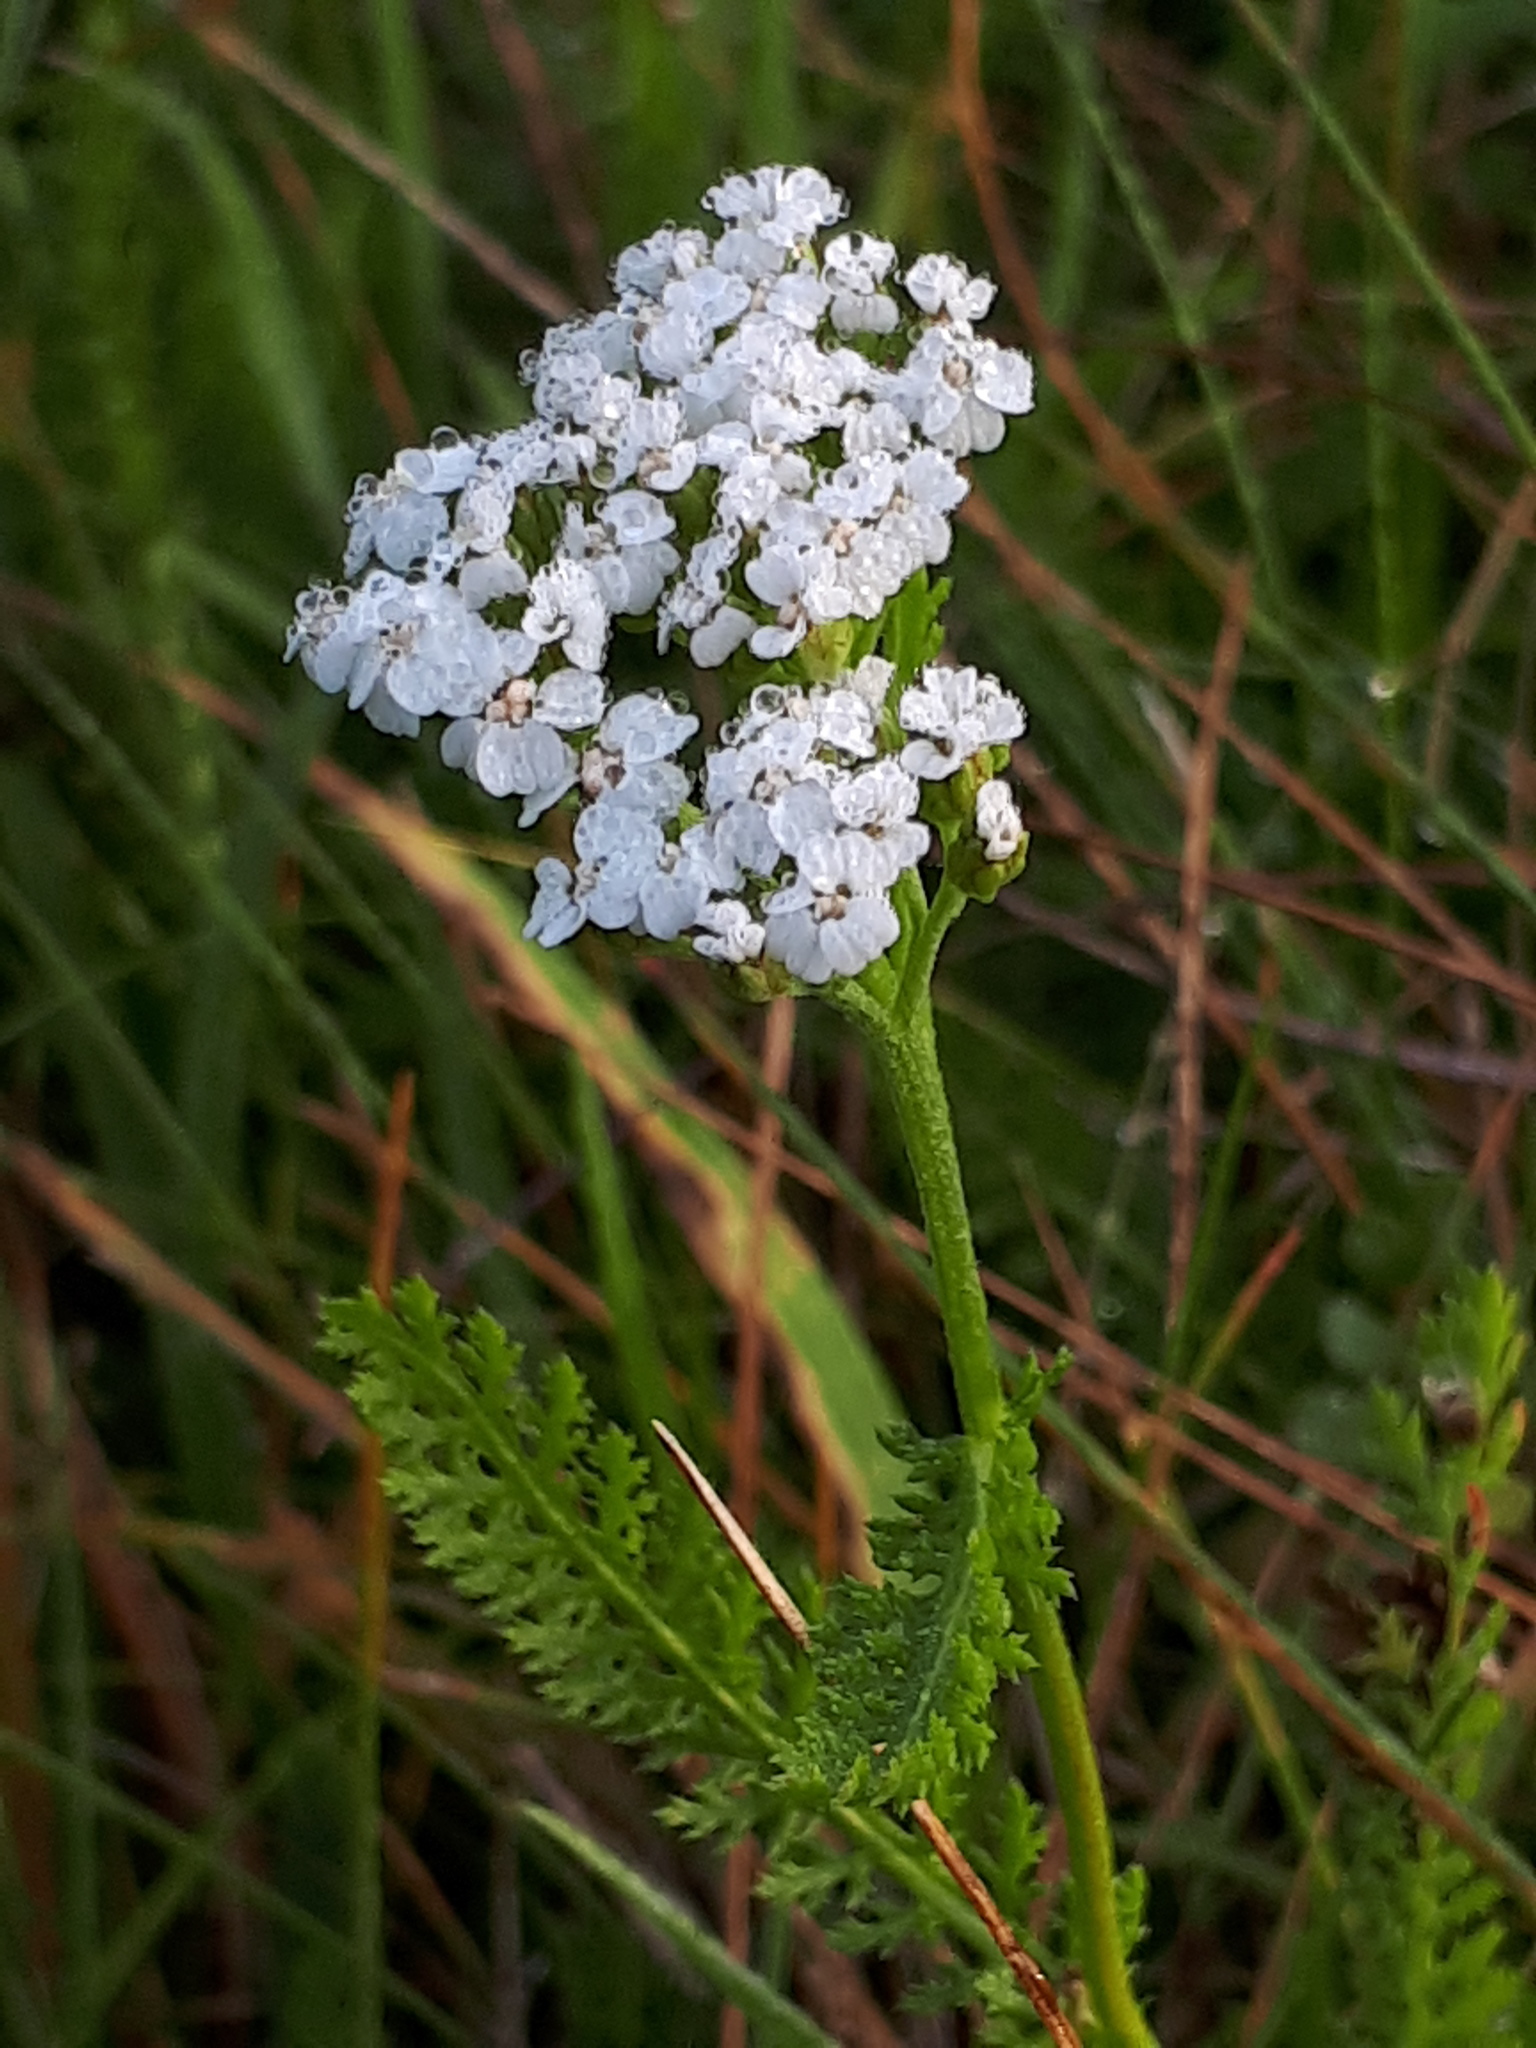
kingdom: Plantae
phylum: Tracheophyta
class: Magnoliopsida
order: Asterales
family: Asteraceae
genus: Achillea
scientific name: Achillea millefolium
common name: Yarrow
